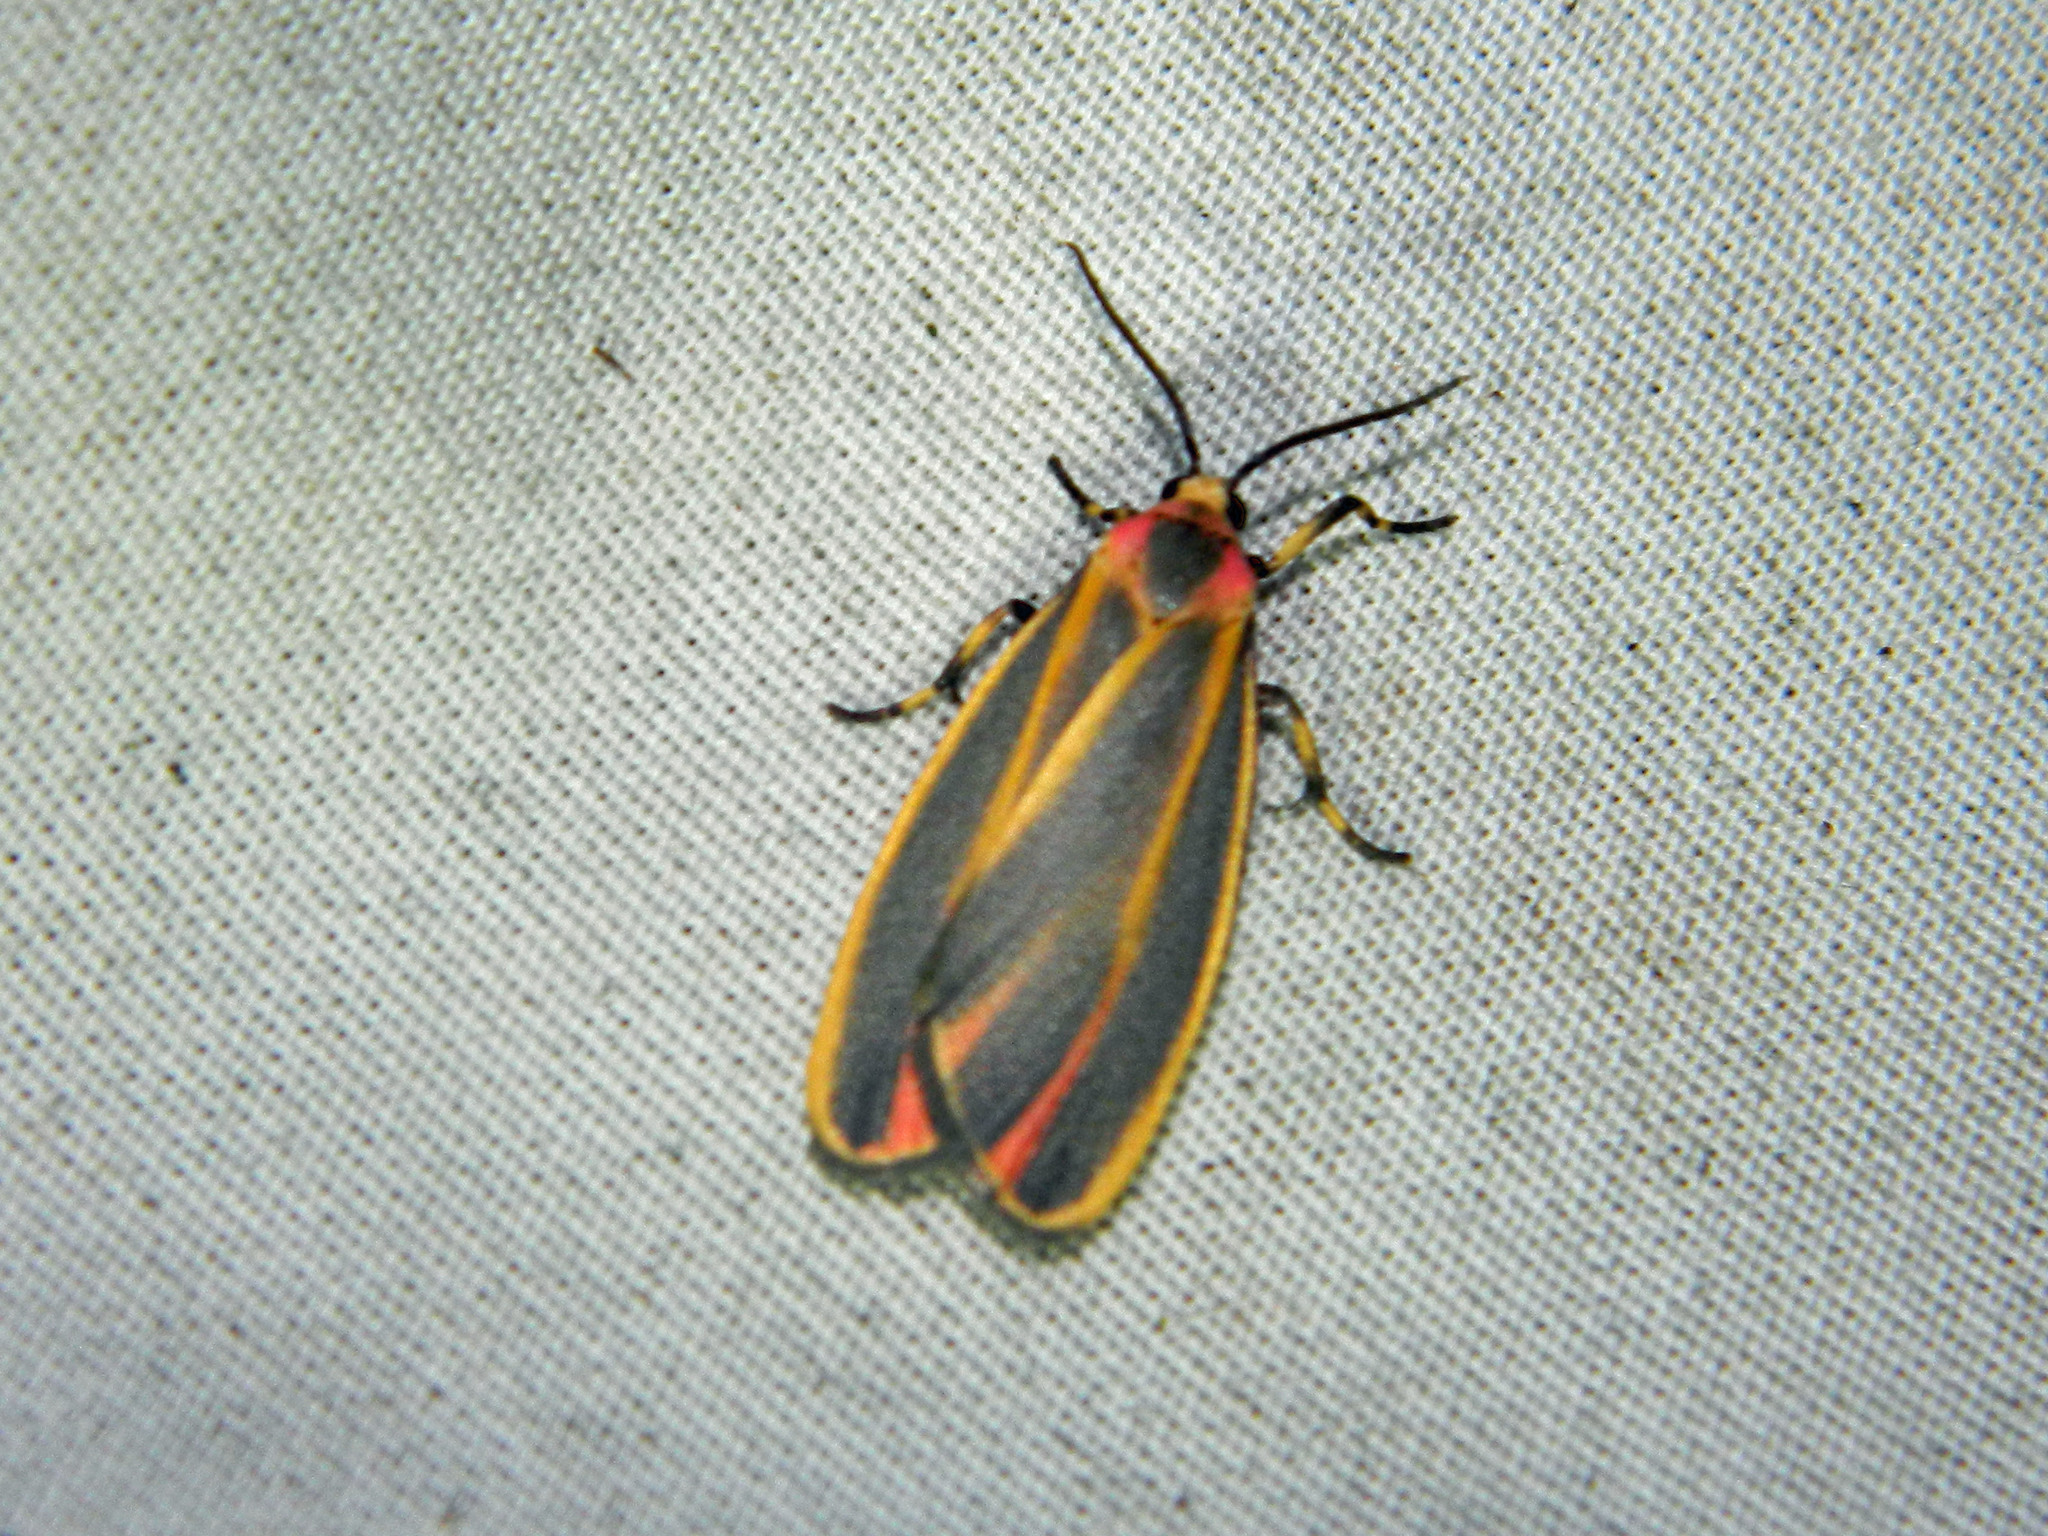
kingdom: Animalia
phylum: Arthropoda
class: Insecta
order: Lepidoptera
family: Erebidae
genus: Hypoprepia
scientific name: Hypoprepia fucosa
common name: Painted lichen moth
